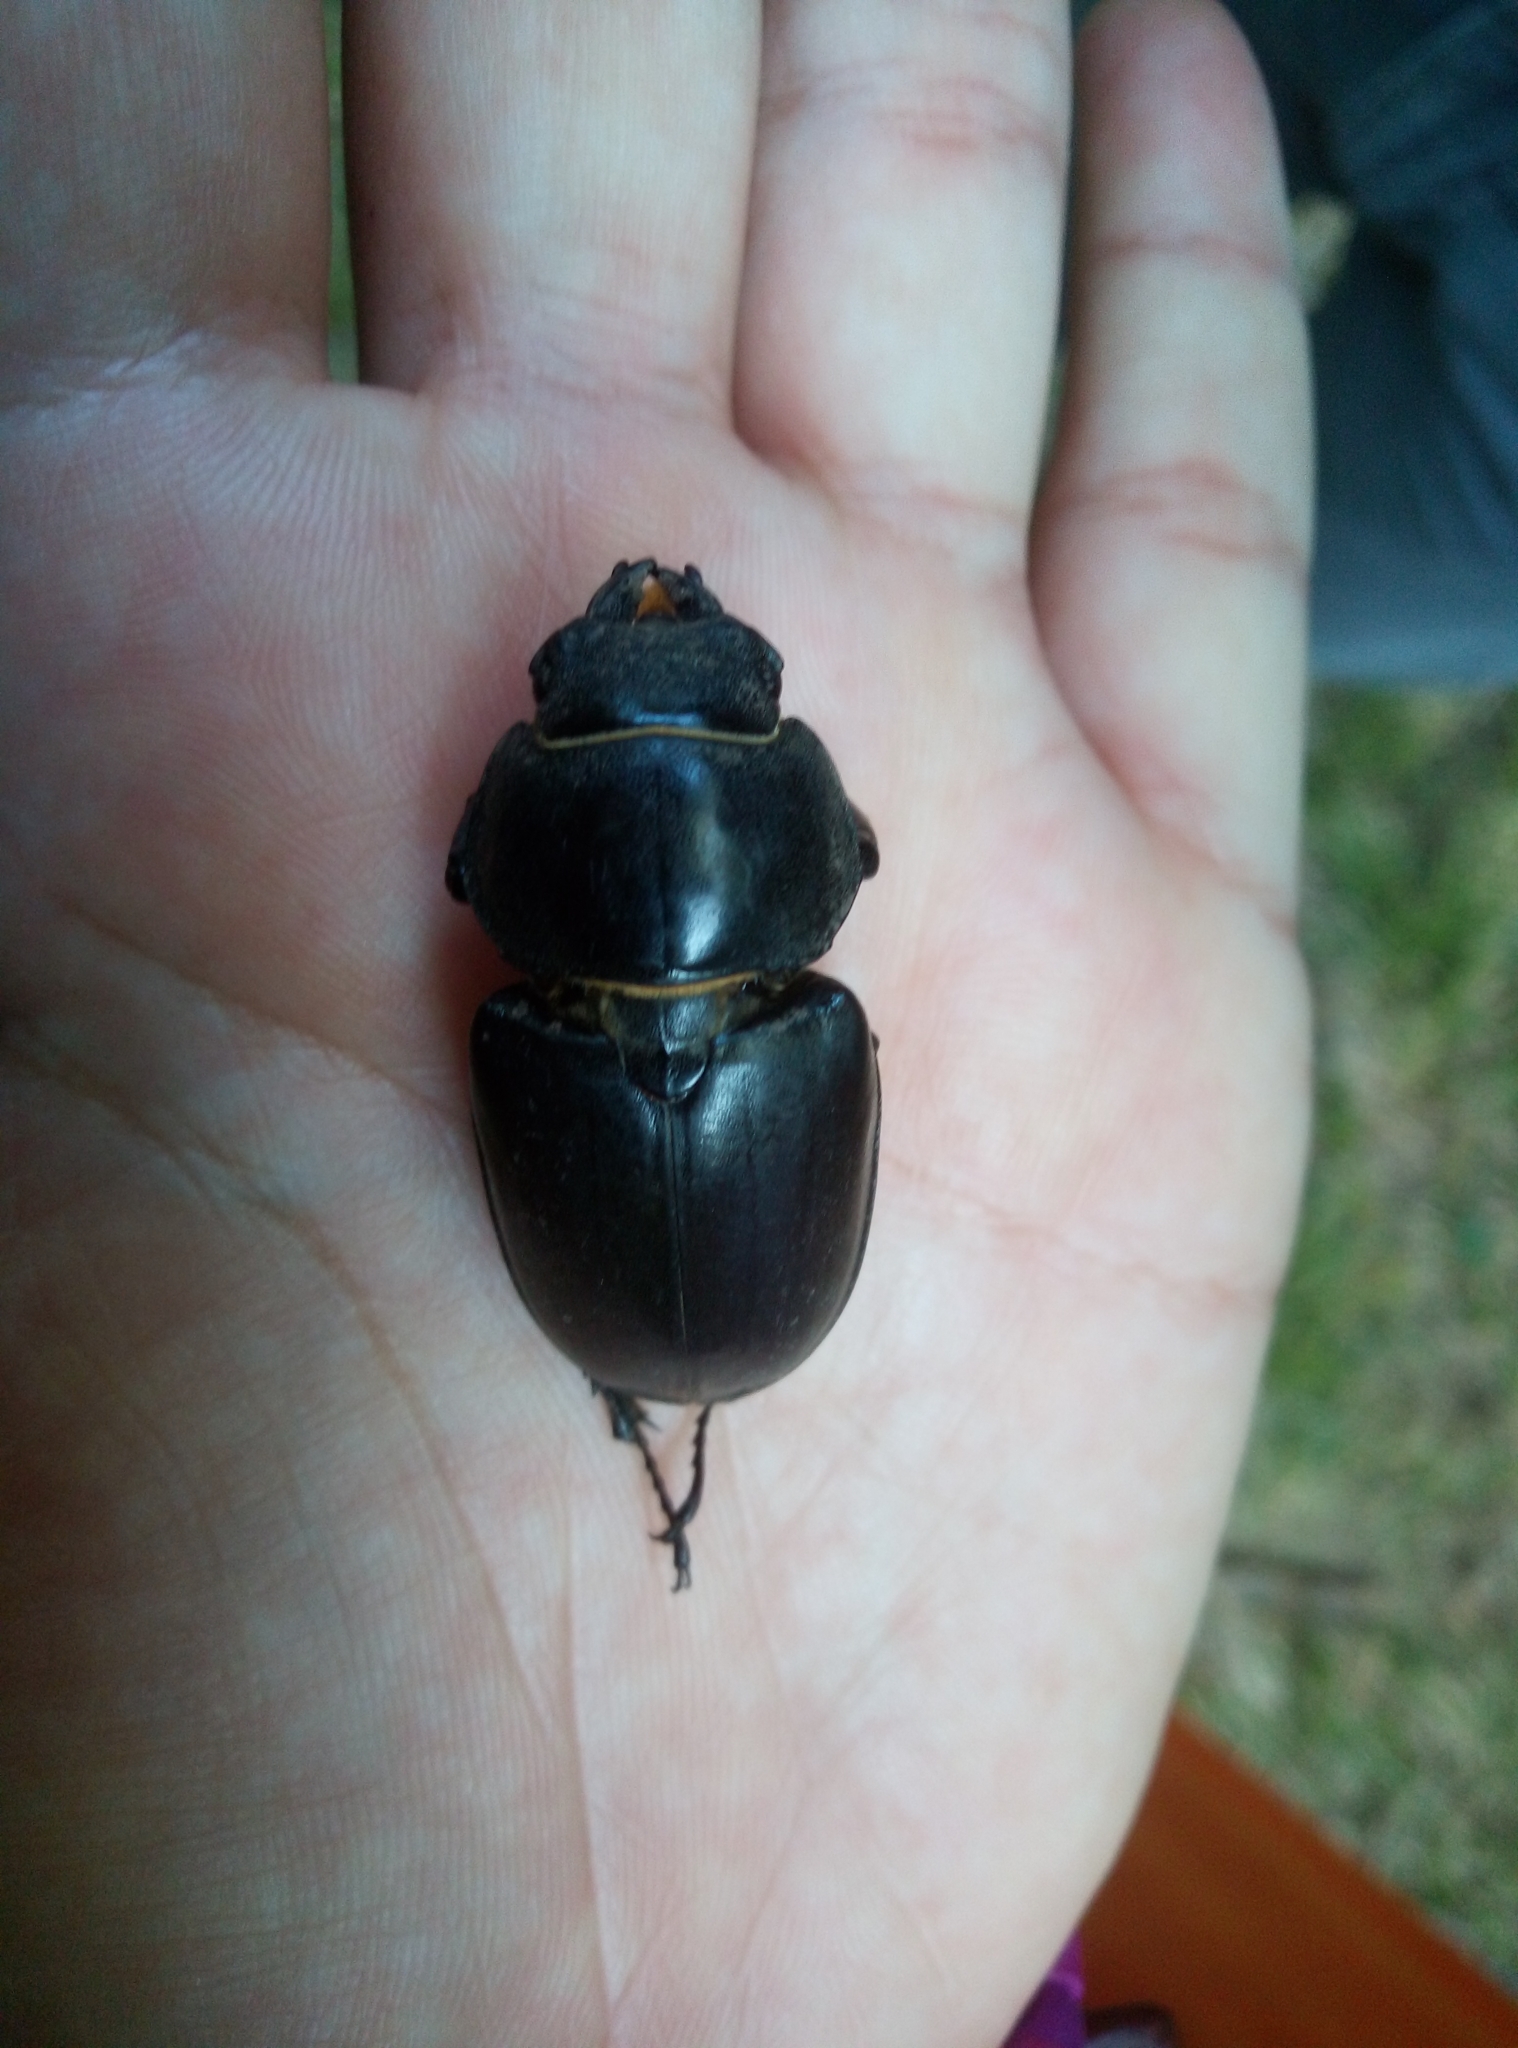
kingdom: Animalia
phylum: Arthropoda
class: Insecta
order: Coleoptera
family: Lucanidae
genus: Lucanus
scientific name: Lucanus cervus
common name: Stag beetle
